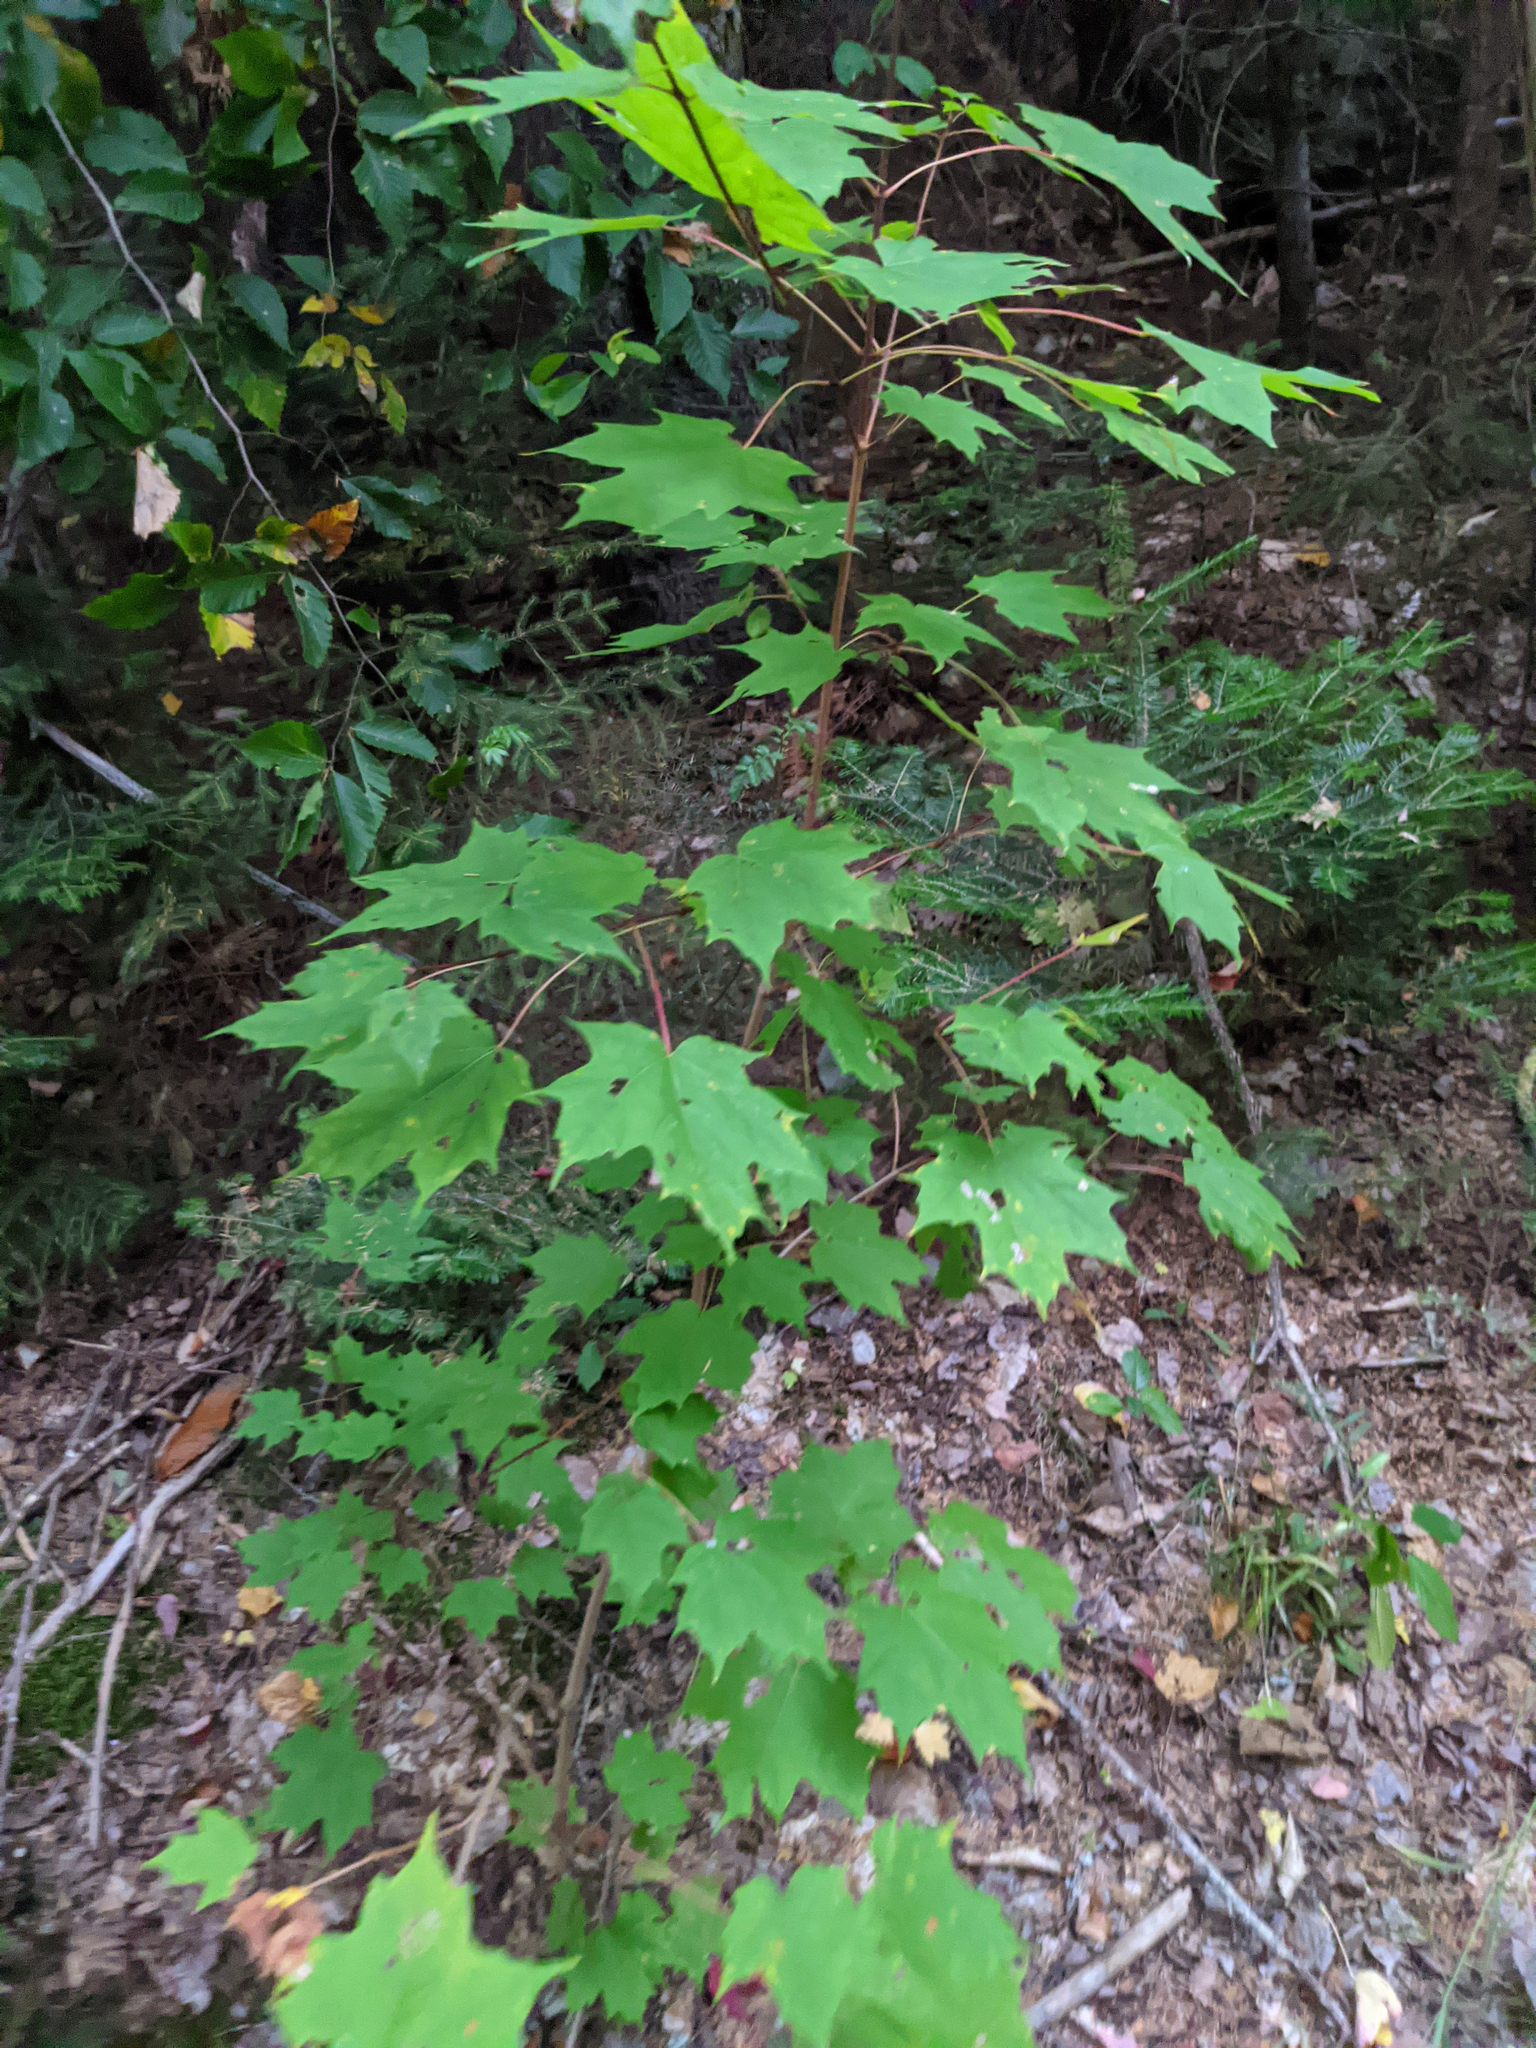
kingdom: Plantae
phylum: Tracheophyta
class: Magnoliopsida
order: Sapindales
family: Sapindaceae
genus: Acer
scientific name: Acer saccharum
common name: Sugar maple
